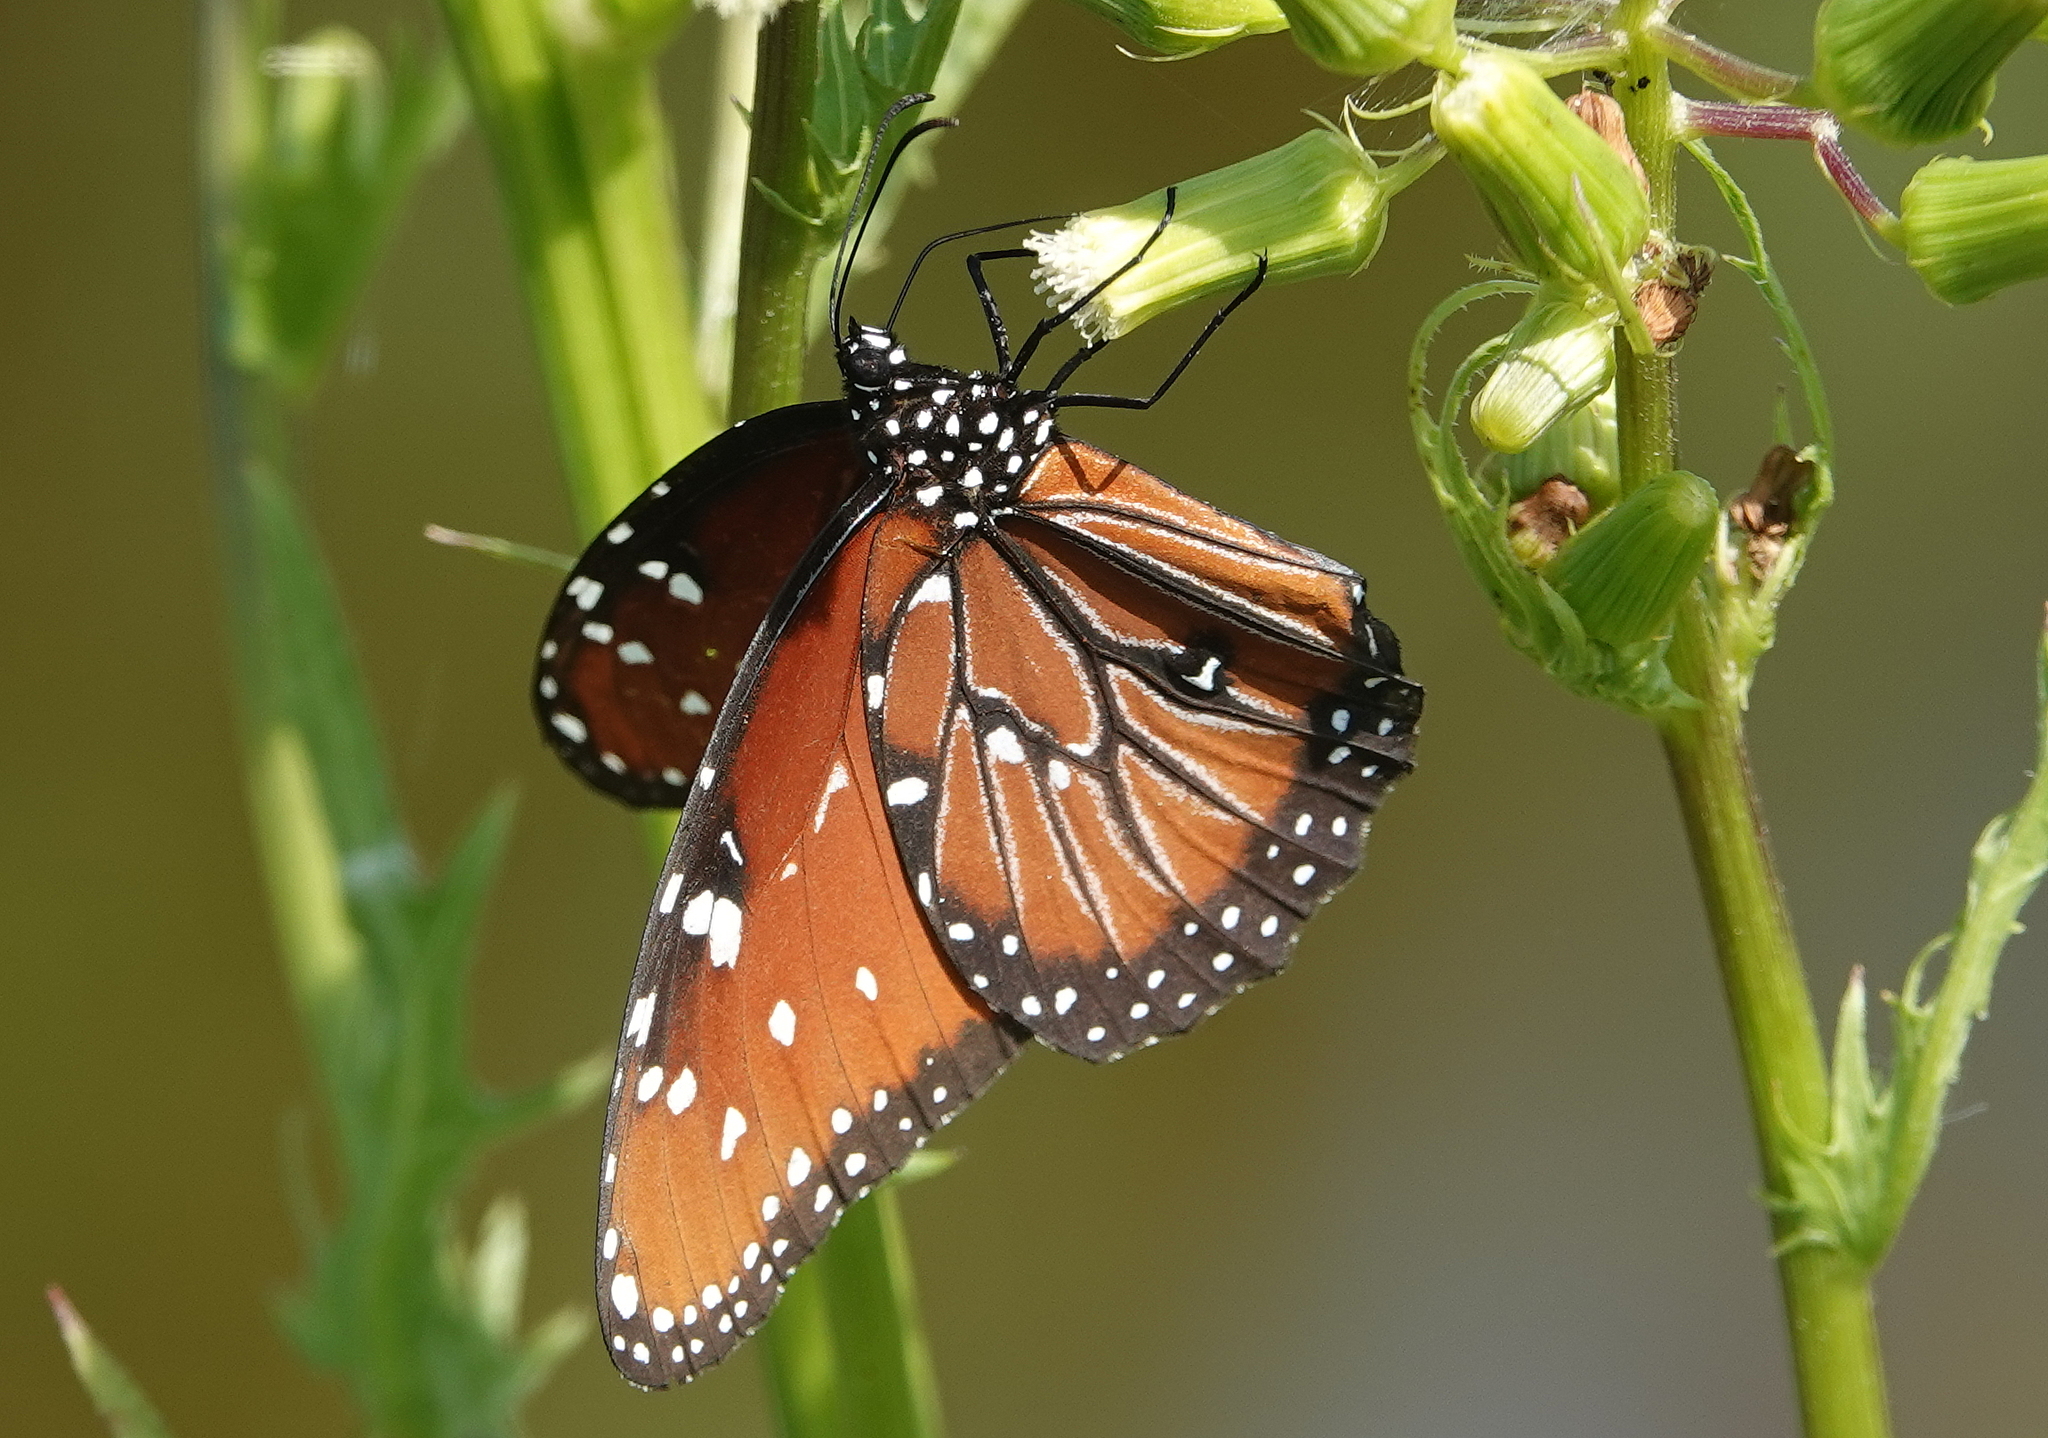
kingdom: Animalia
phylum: Arthropoda
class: Insecta
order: Lepidoptera
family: Nymphalidae
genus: Danaus
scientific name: Danaus gilippus
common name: Queen
